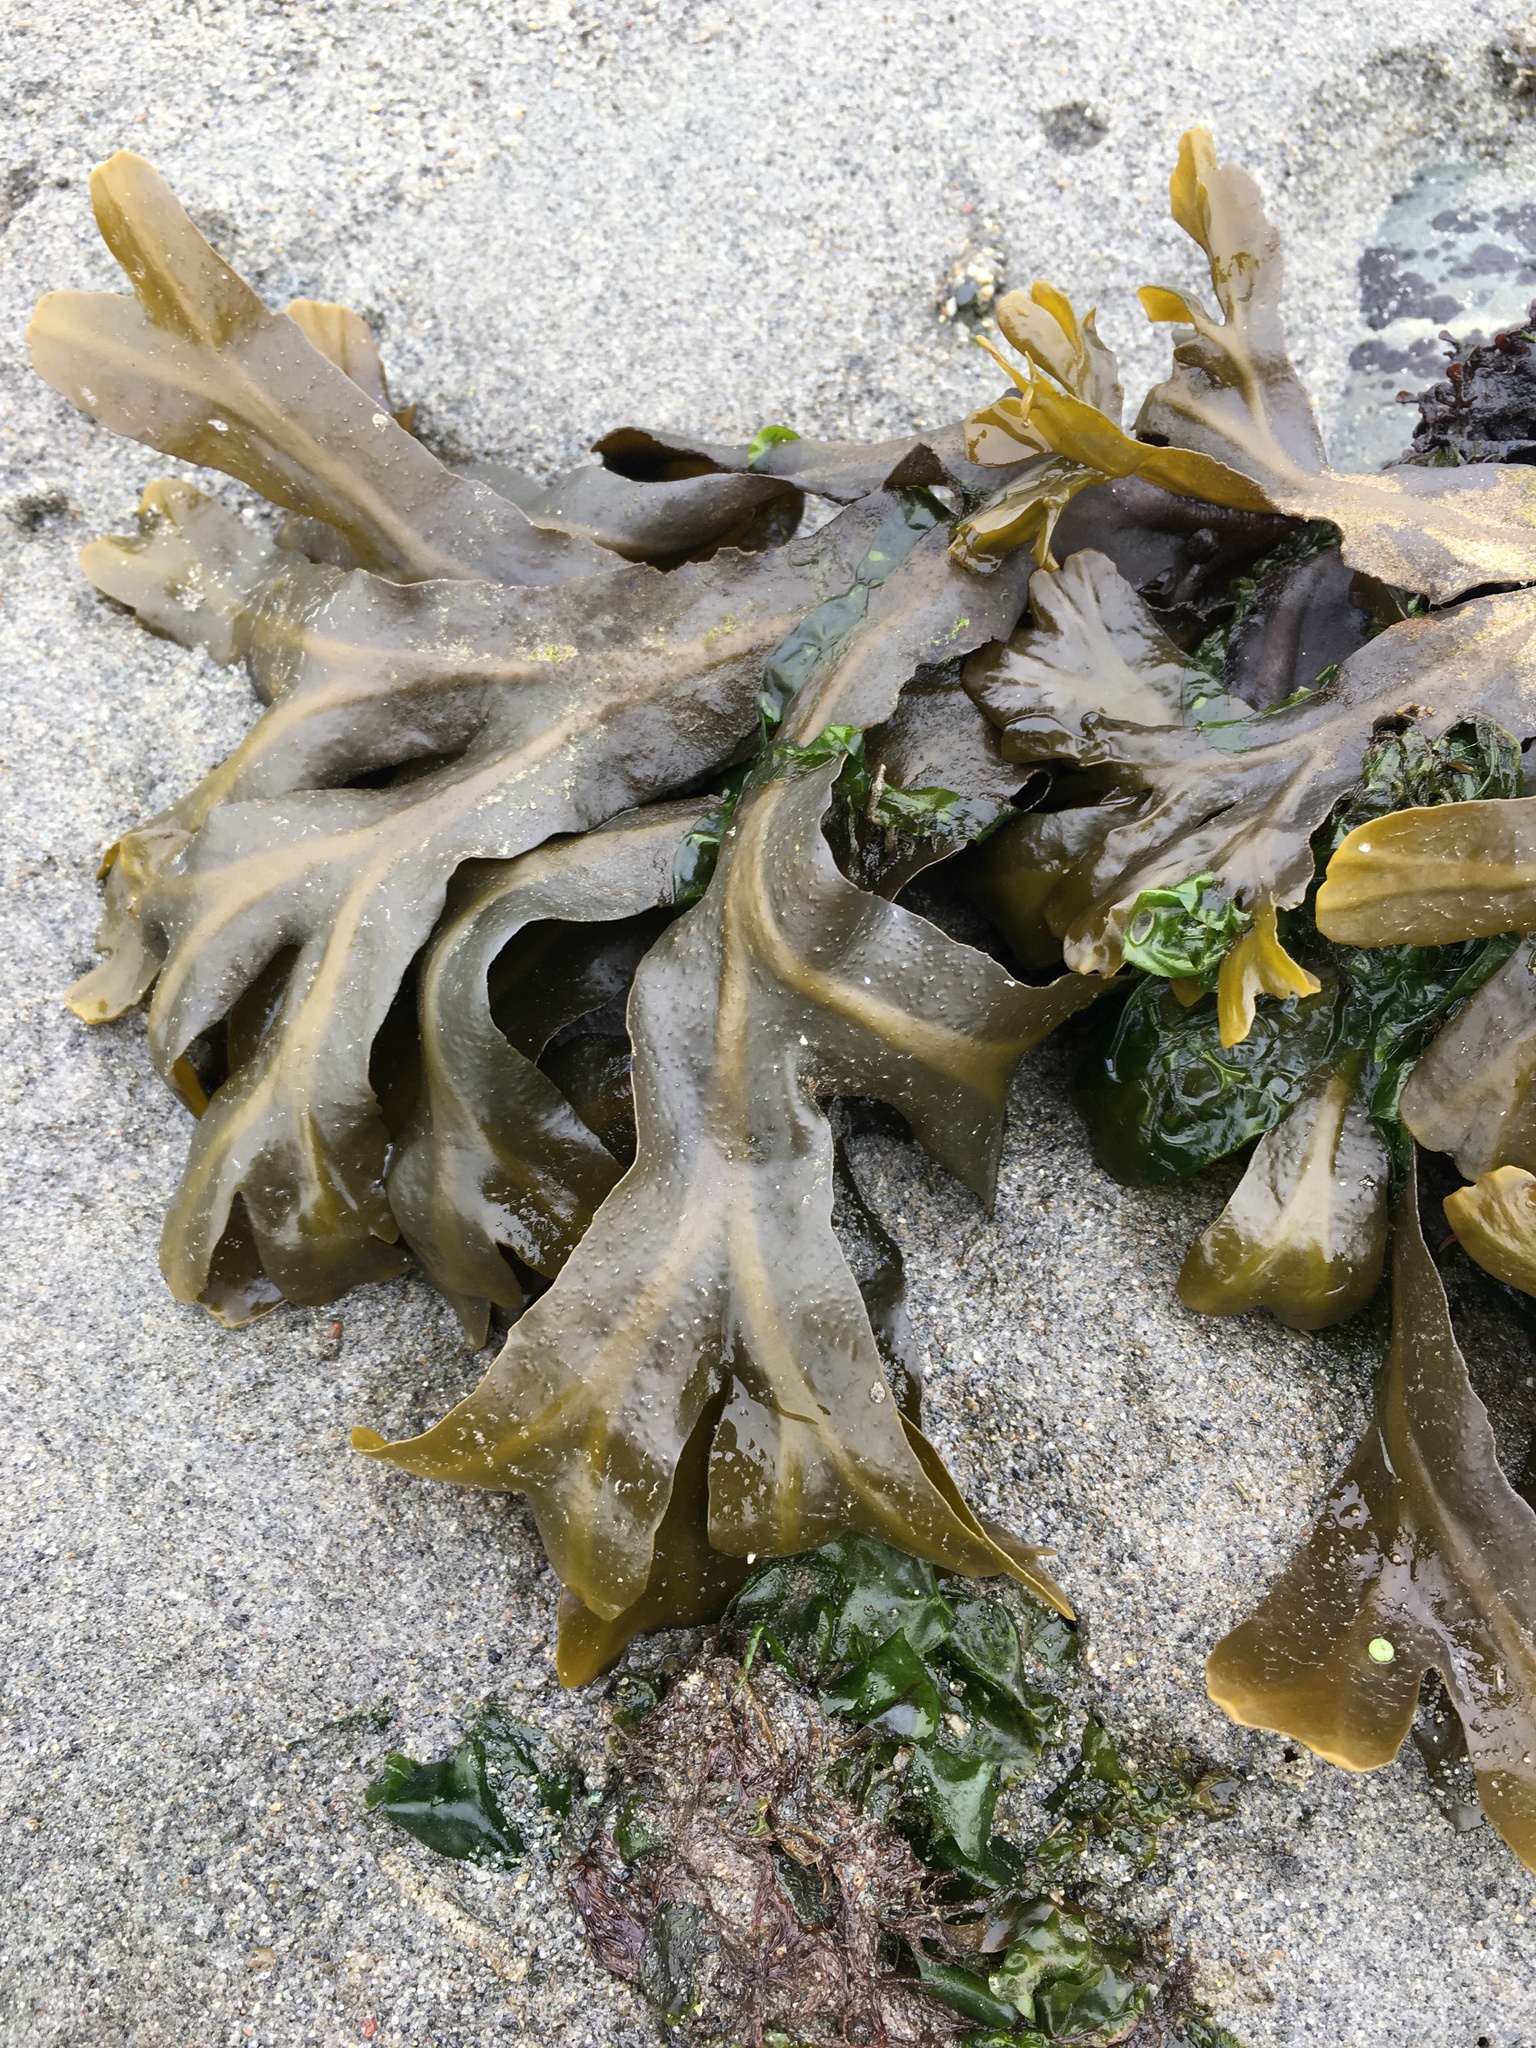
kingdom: Chromista
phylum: Ochrophyta
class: Phaeophyceae
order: Fucales
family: Fucaceae
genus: Fucus
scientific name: Fucus distichus
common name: Rockweed
